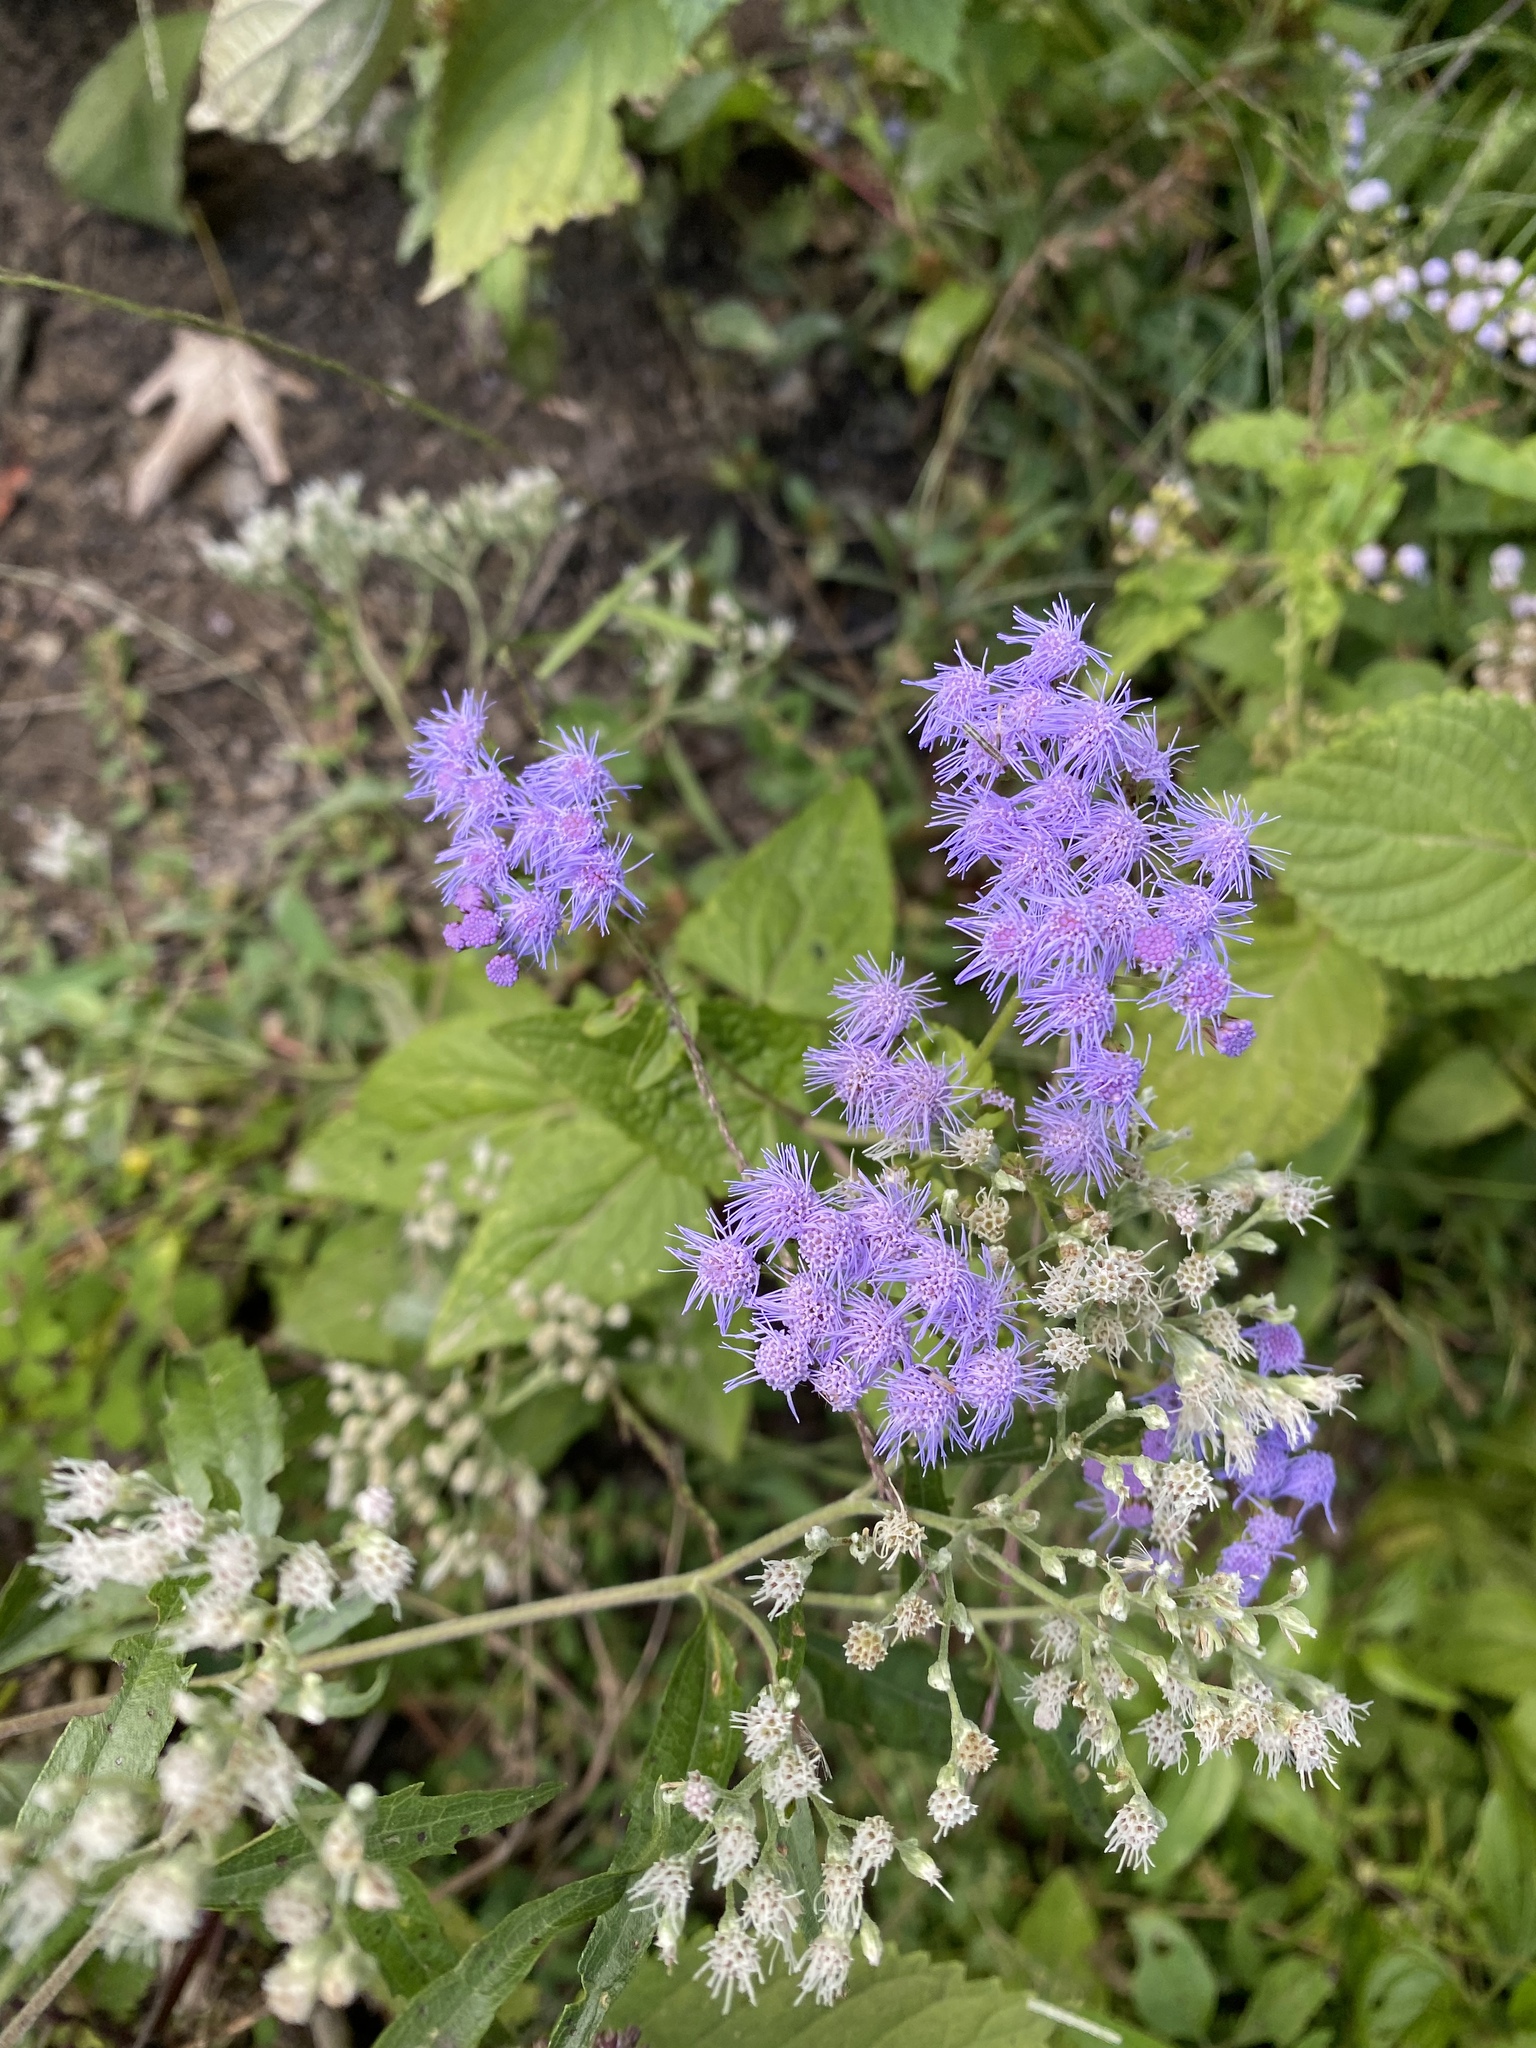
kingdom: Plantae
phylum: Tracheophyta
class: Magnoliopsida
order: Asterales
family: Asteraceae
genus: Conoclinium
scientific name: Conoclinium coelestinum
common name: Blue mistflower
